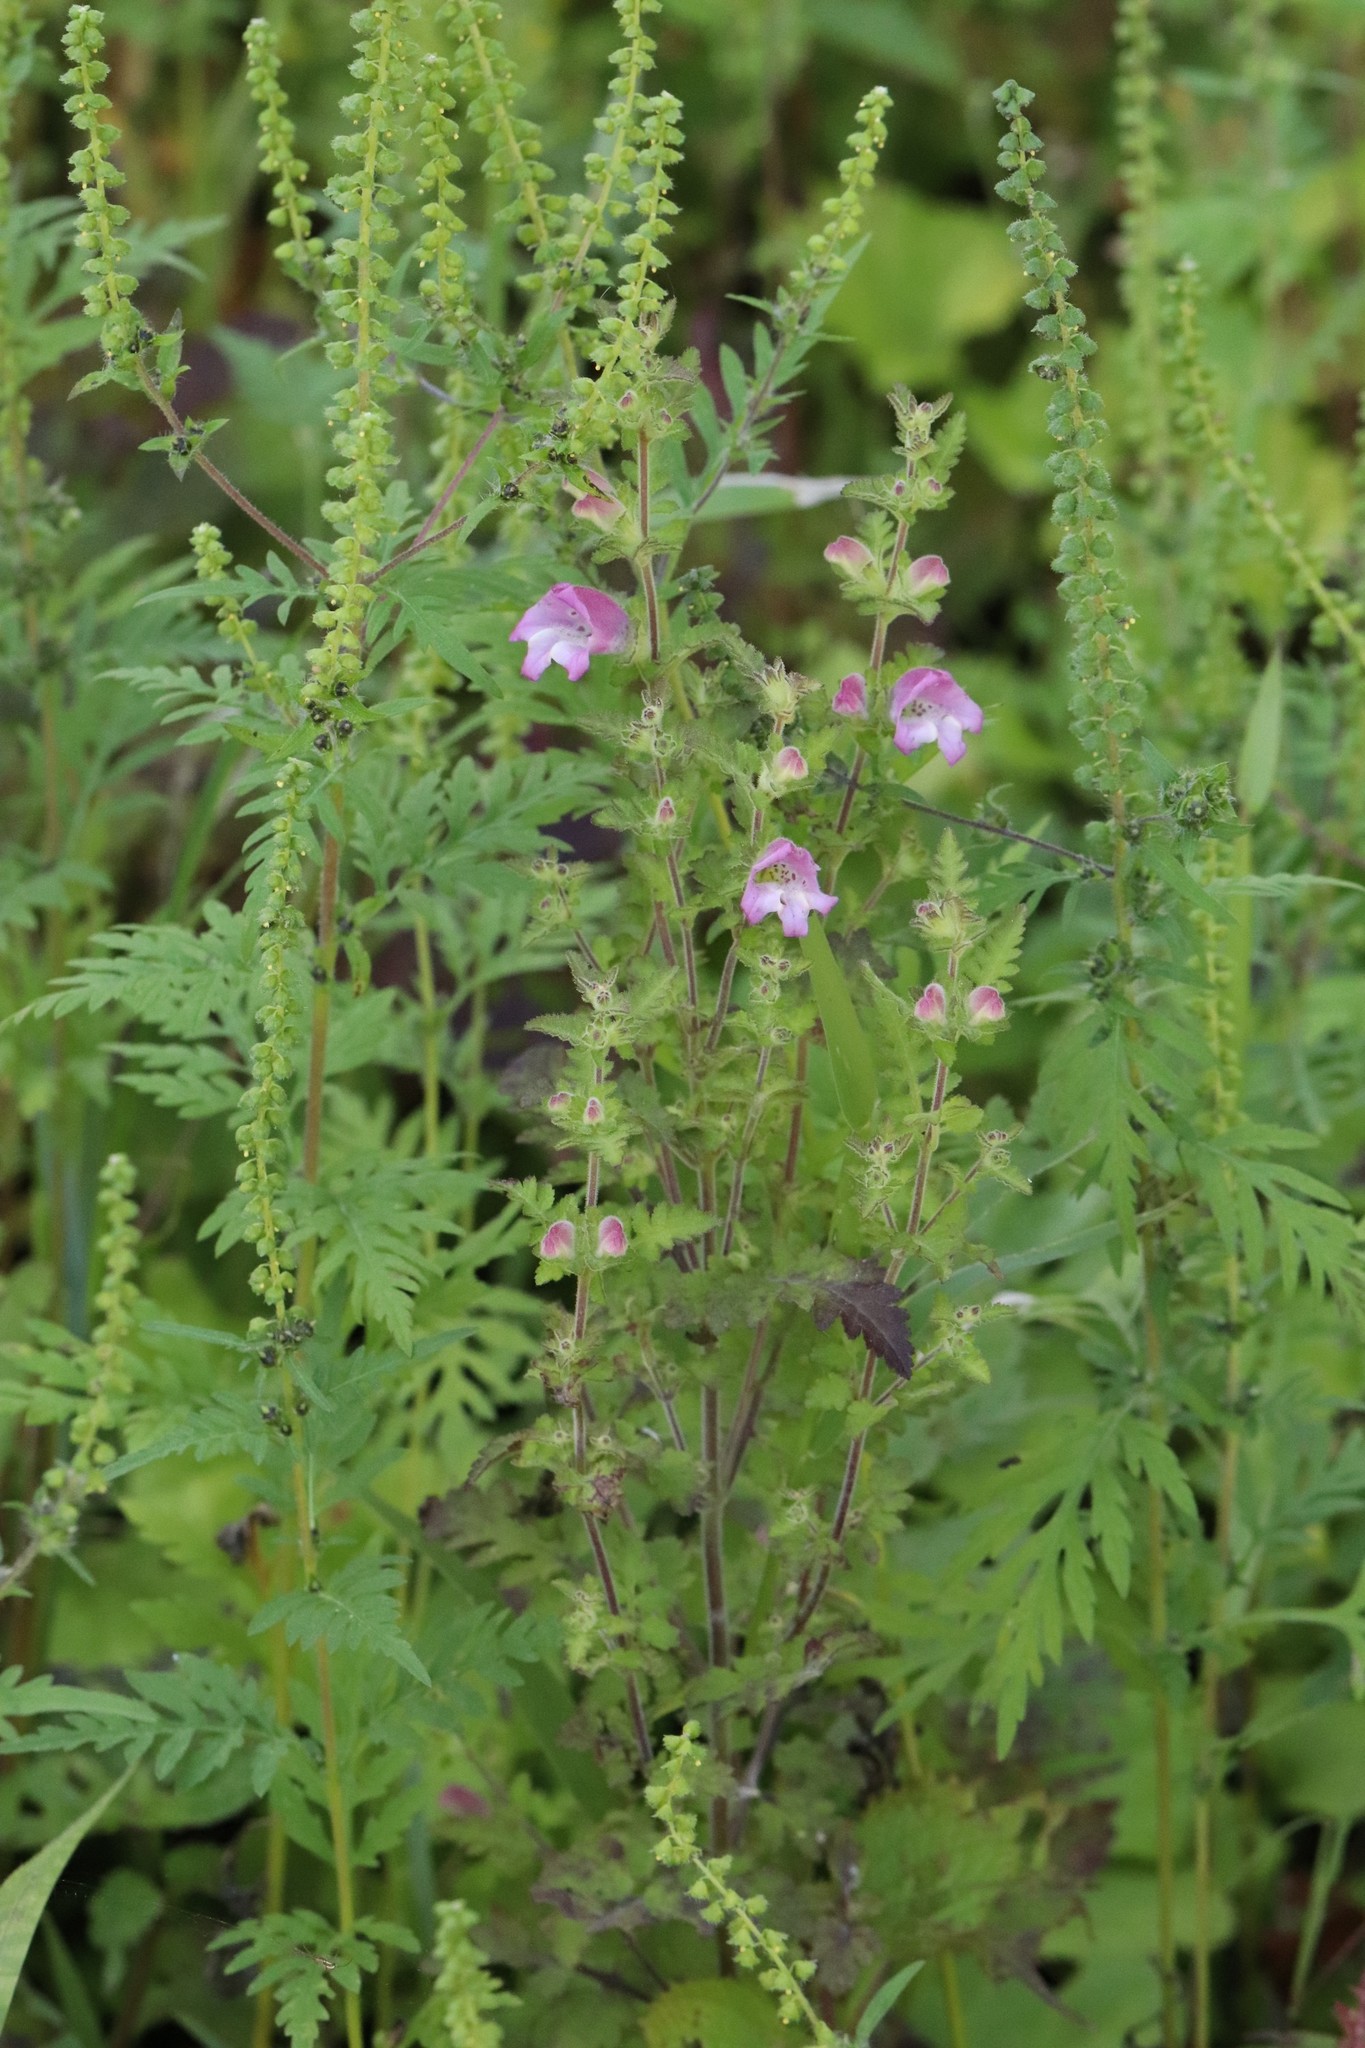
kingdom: Plantae
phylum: Tracheophyta
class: Magnoliopsida
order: Lamiales
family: Orobanchaceae
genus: Phtheirospermum
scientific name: Phtheirospermum japonicum
